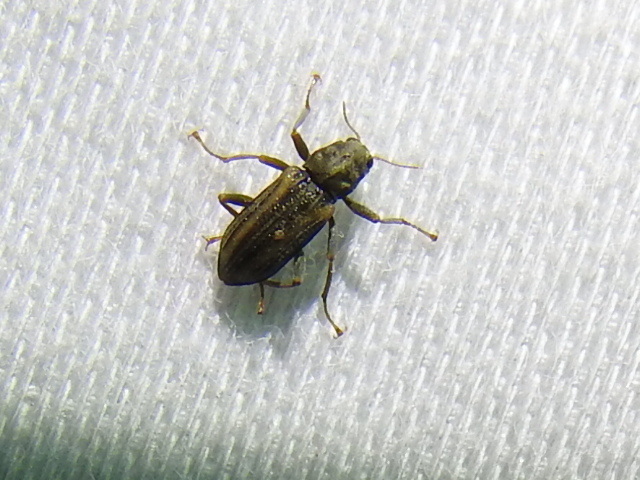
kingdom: Animalia
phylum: Arthropoda
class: Insecta
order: Coleoptera
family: Elmidae
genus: Stenelmis
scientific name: Stenelmis cheryl
